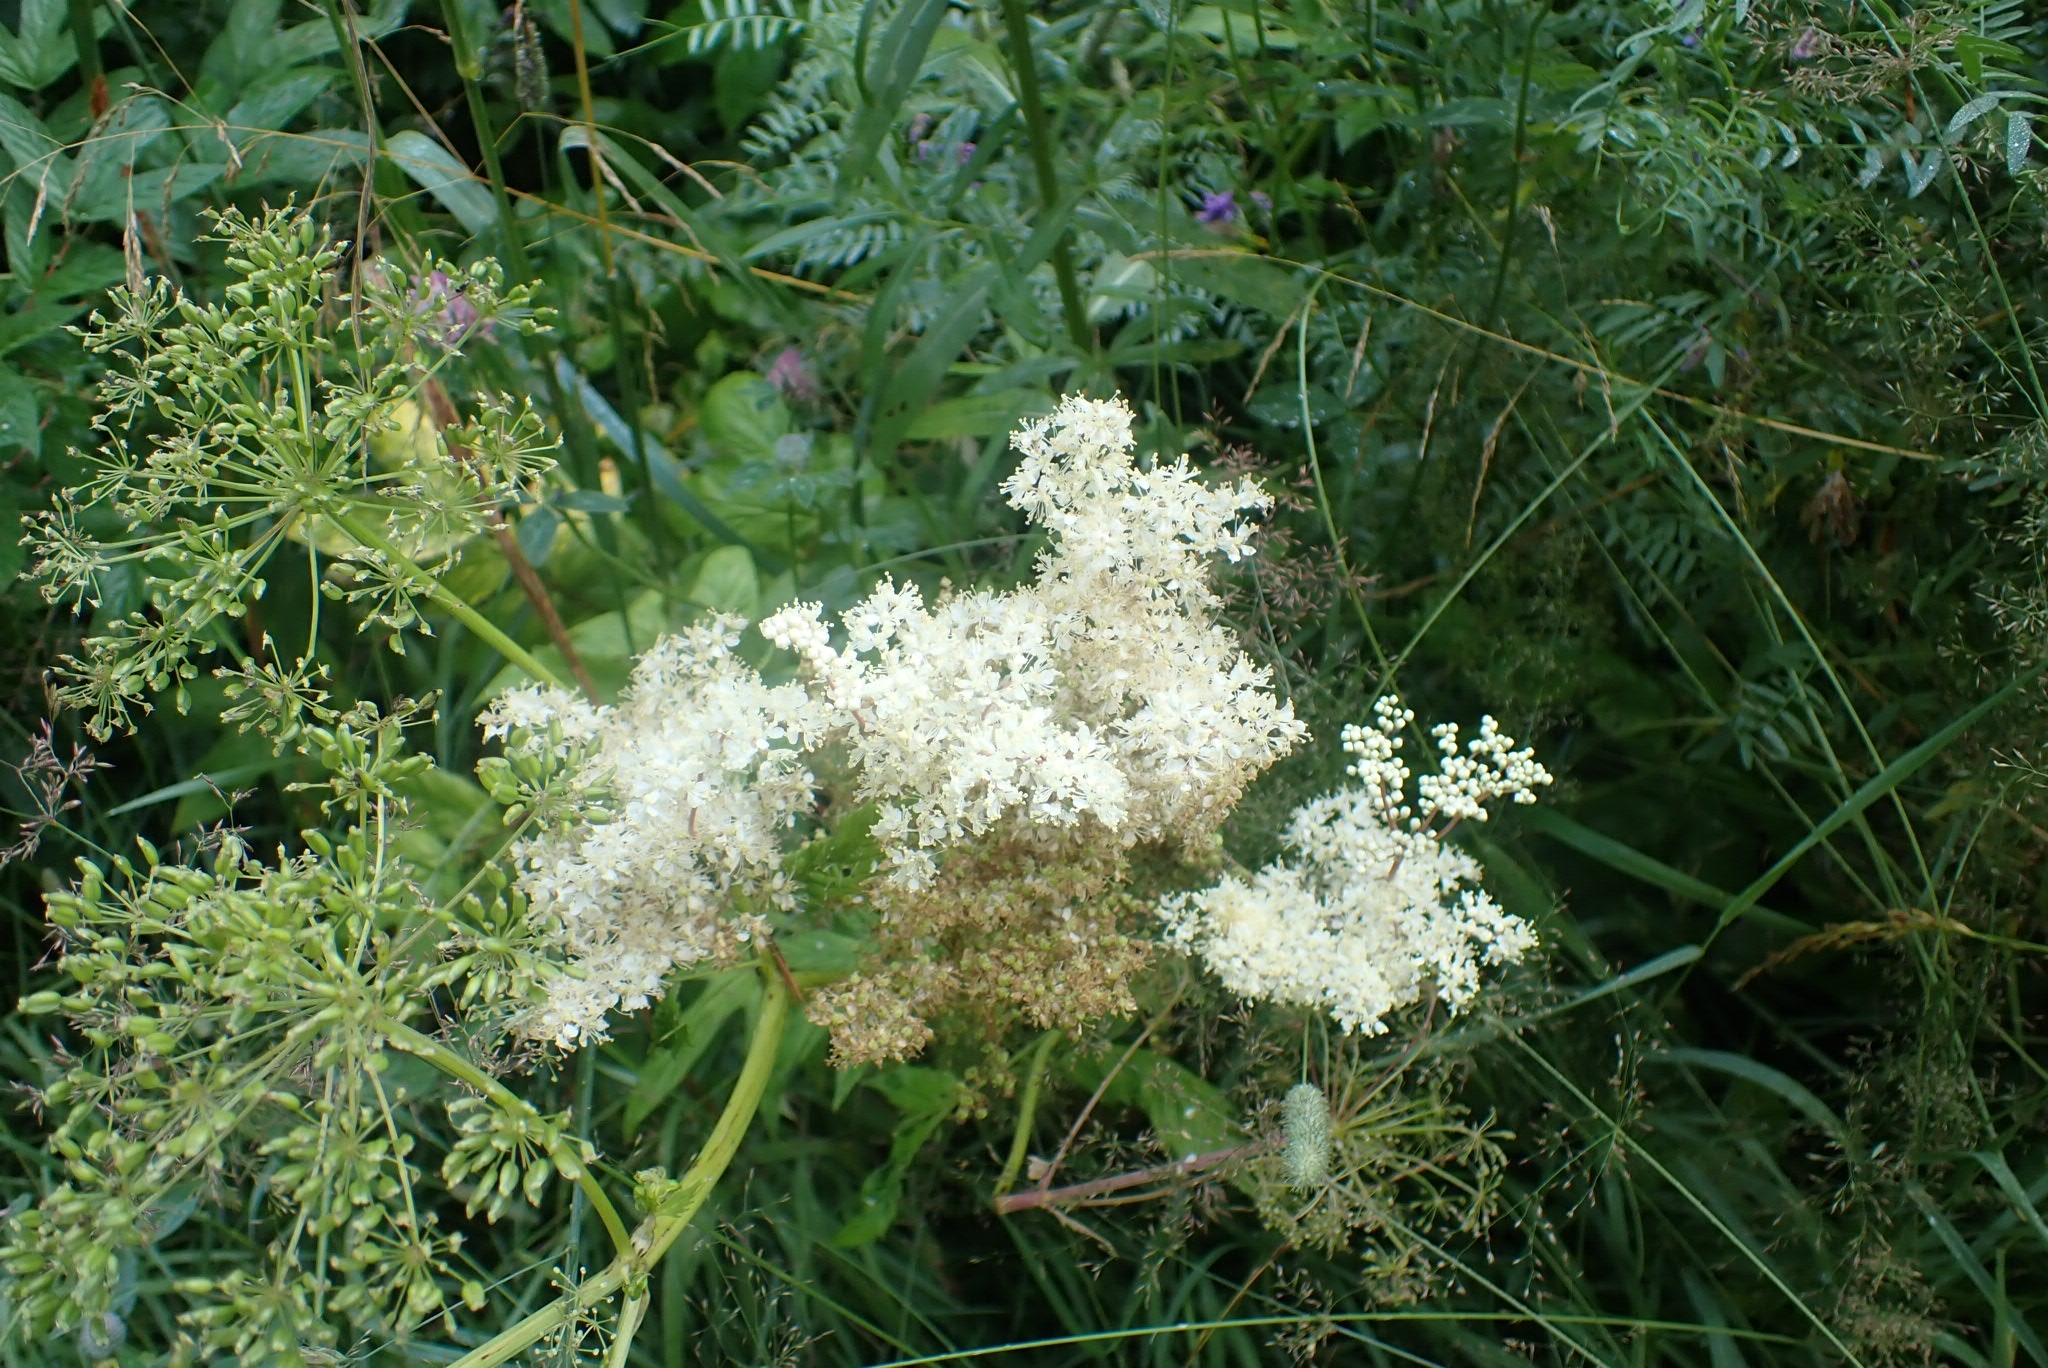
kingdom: Plantae
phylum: Tracheophyta
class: Magnoliopsida
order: Rosales
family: Rosaceae
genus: Filipendula
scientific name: Filipendula ulmaria
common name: Meadowsweet
